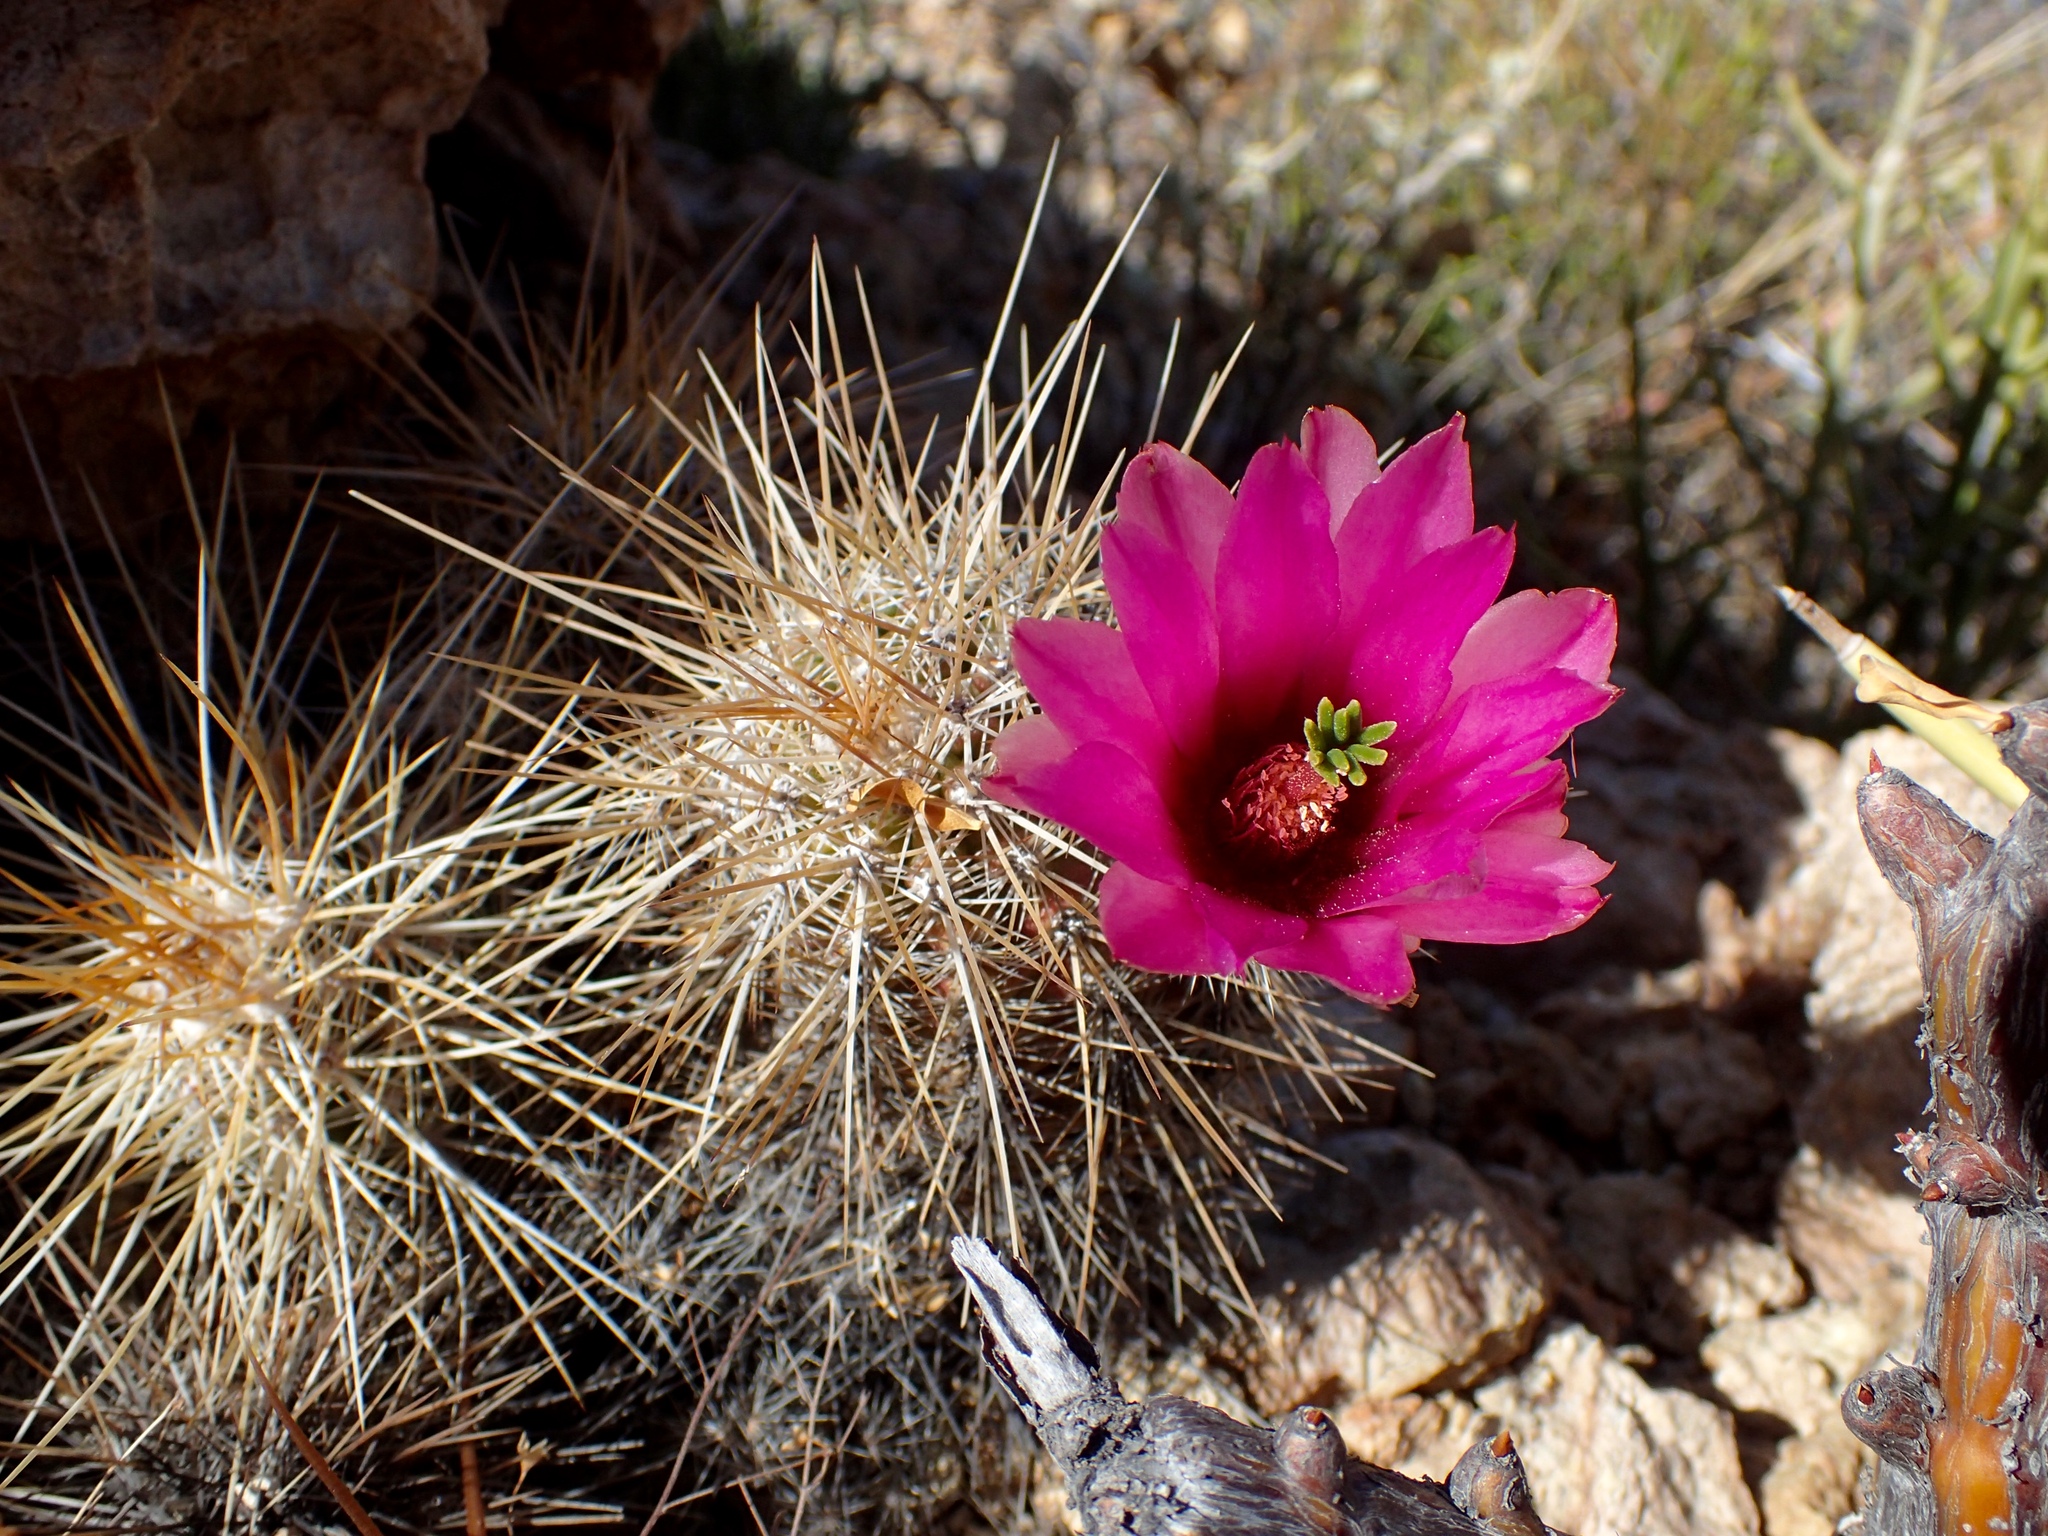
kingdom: Plantae
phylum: Tracheophyta
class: Magnoliopsida
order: Caryophyllales
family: Cactaceae
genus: Echinocereus
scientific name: Echinocereus llanurensis
